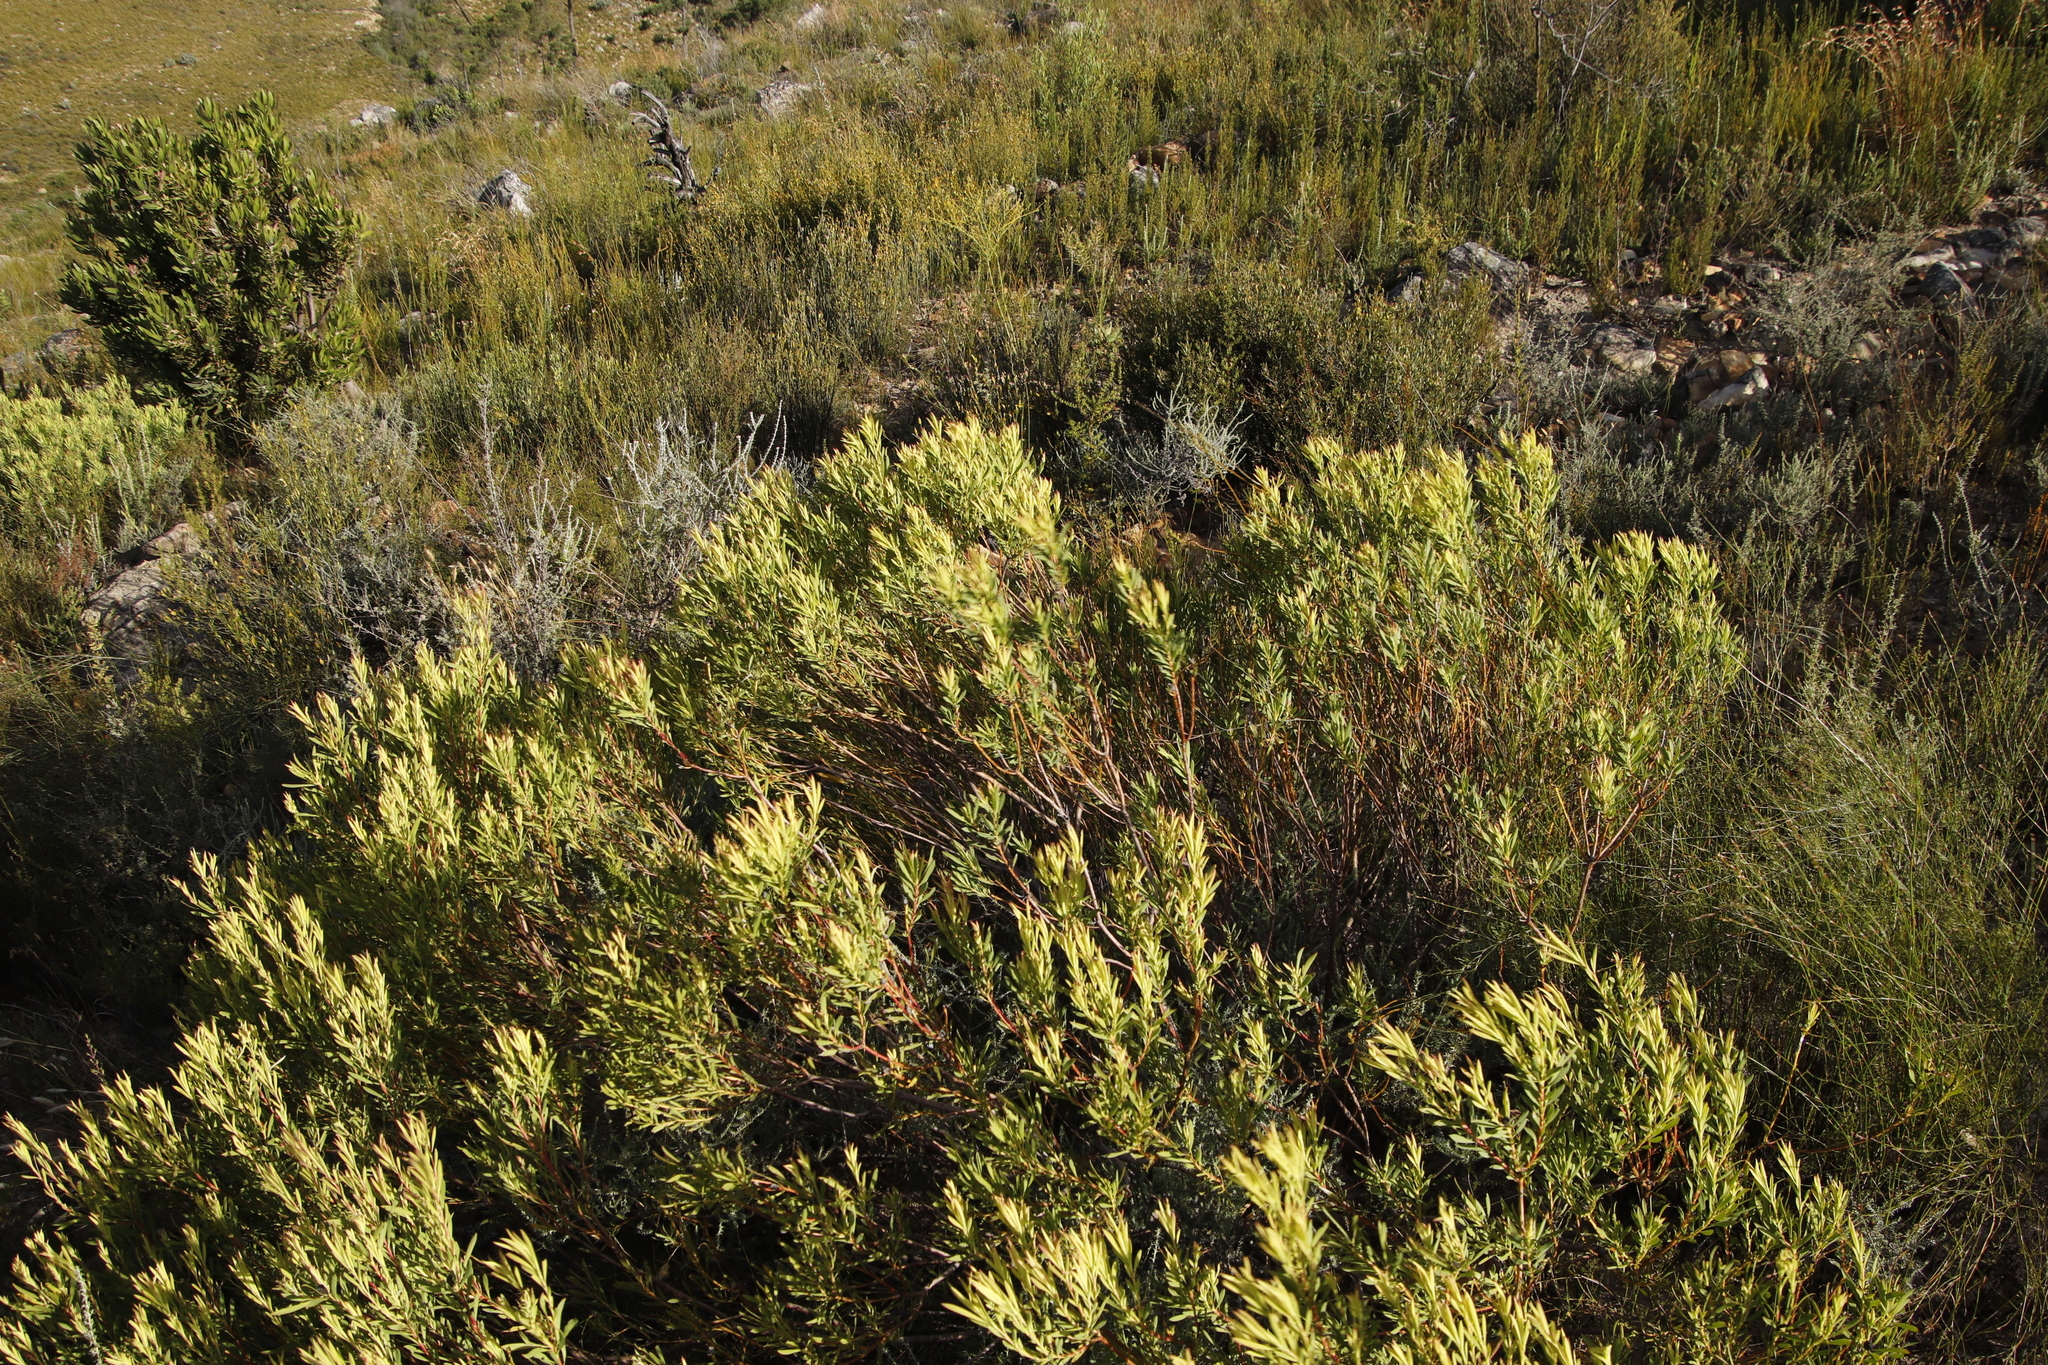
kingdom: Plantae
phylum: Tracheophyta
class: Magnoliopsida
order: Proteales
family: Proteaceae
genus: Leucadendron
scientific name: Leucadendron salignum
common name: Common sunshine conebush
